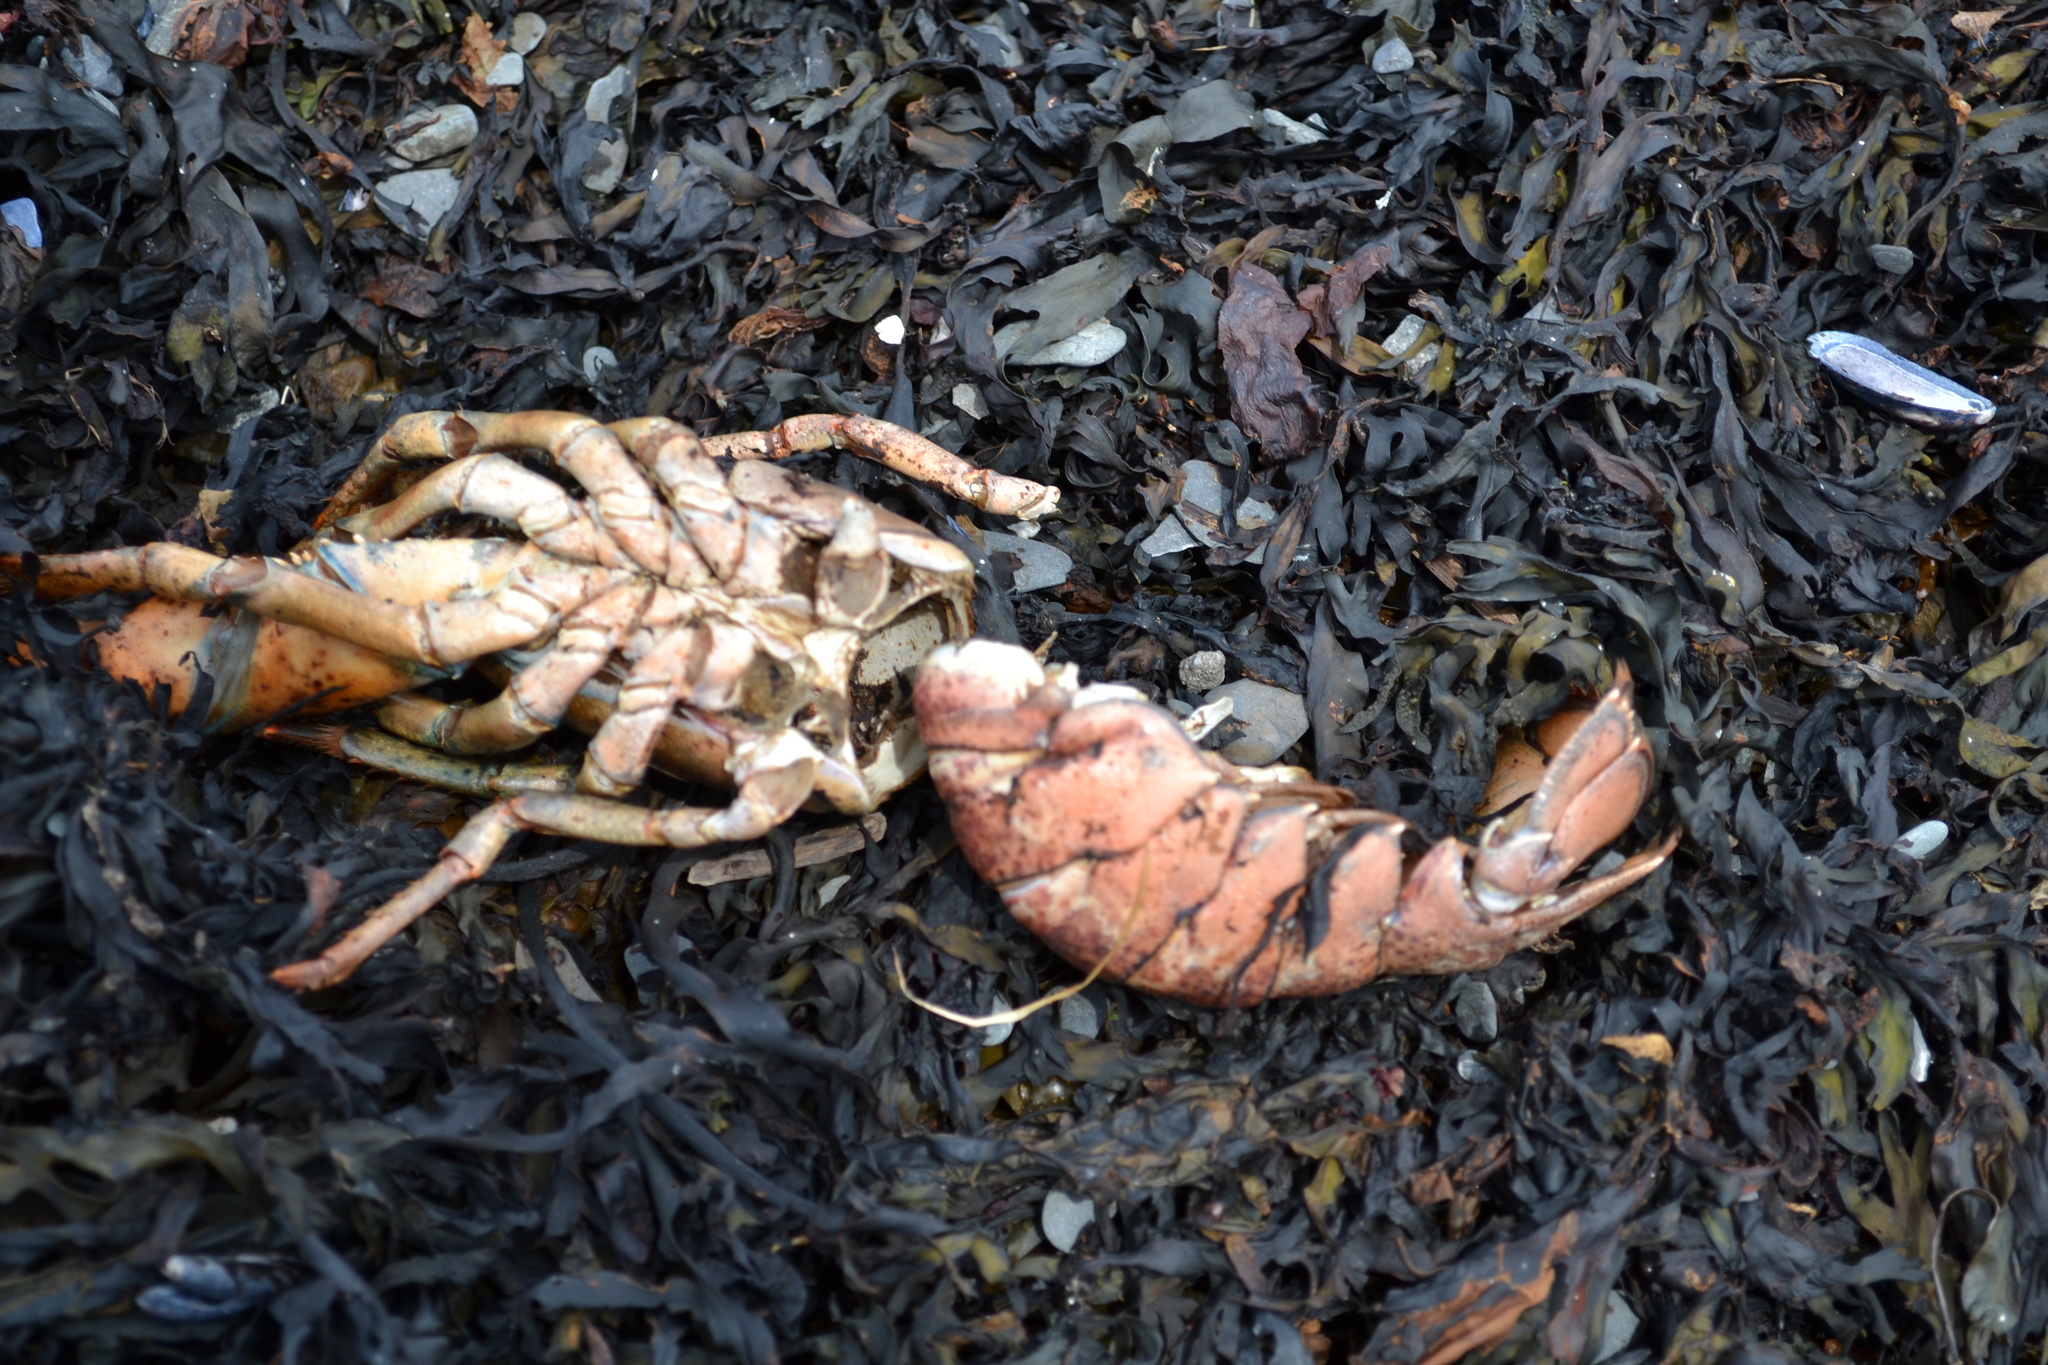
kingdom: Animalia
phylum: Arthropoda
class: Malacostraca
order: Decapoda
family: Nephropidae
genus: Homarus
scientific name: Homarus americanus
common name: American lobster
